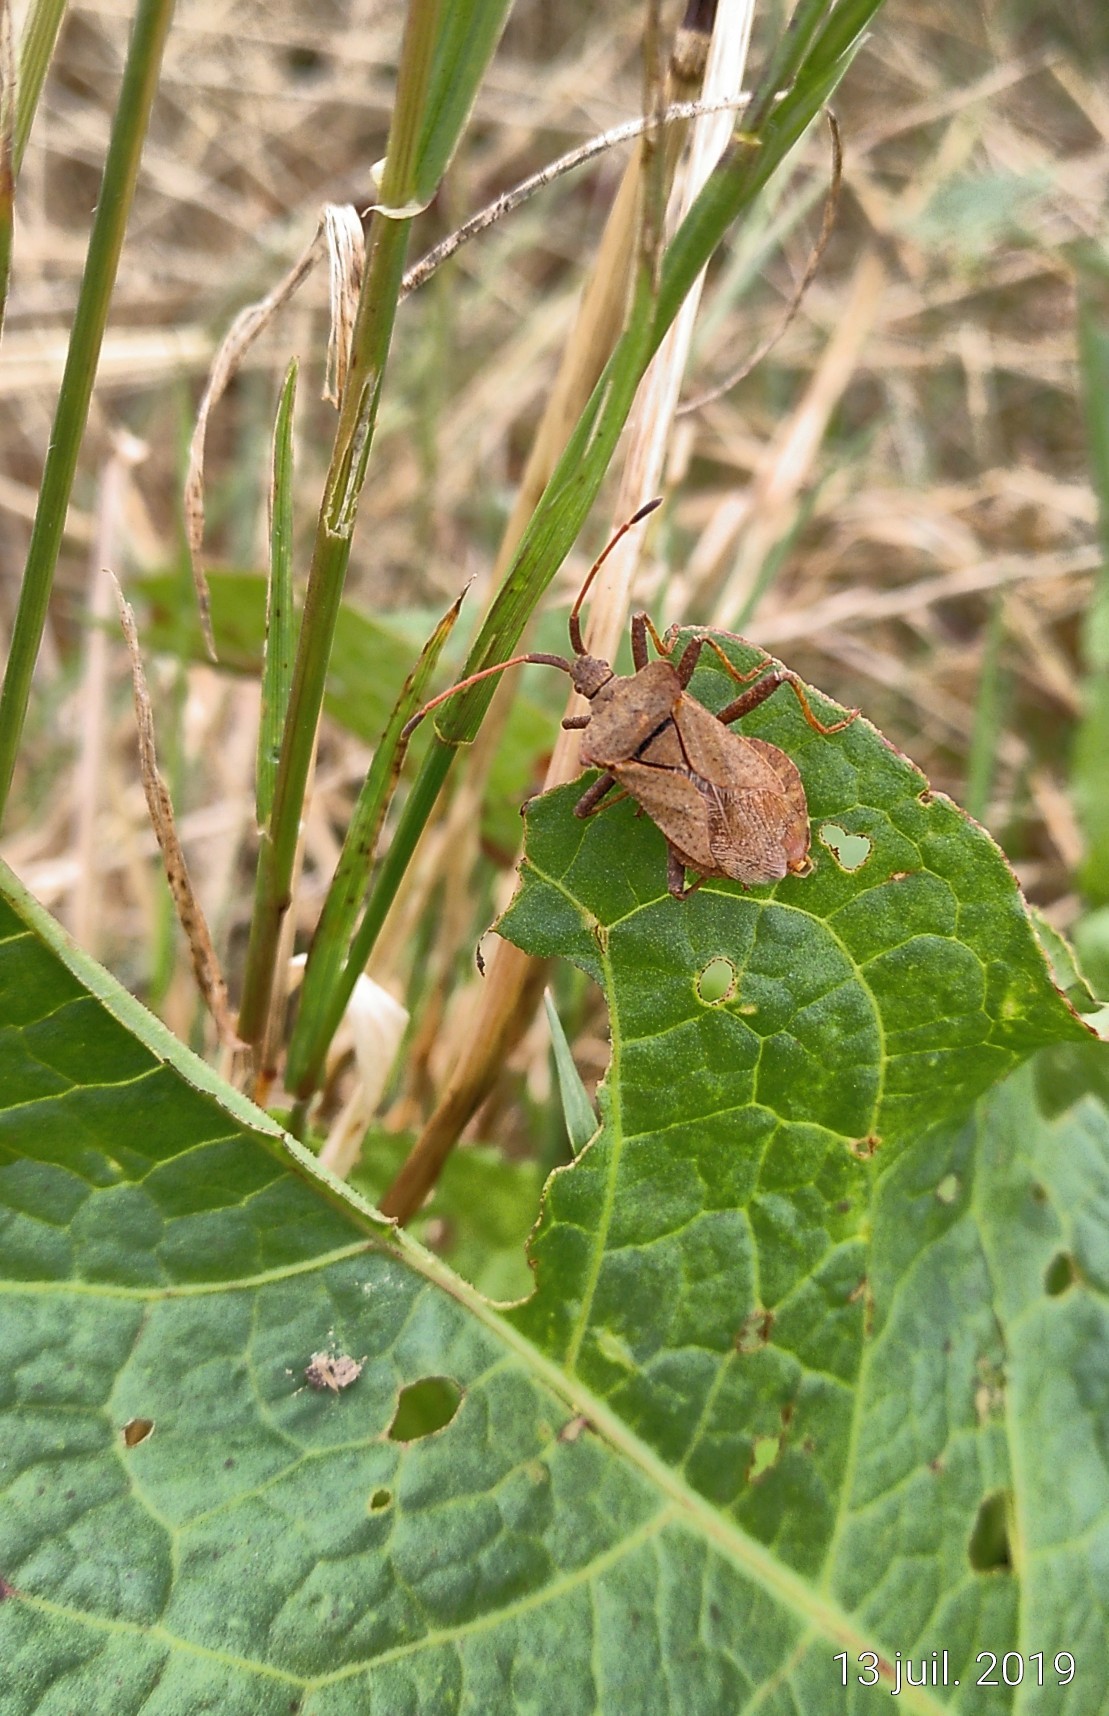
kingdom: Animalia
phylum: Arthropoda
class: Insecta
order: Hemiptera
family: Coreidae
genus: Coreus
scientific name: Coreus marginatus
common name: Dock bug
